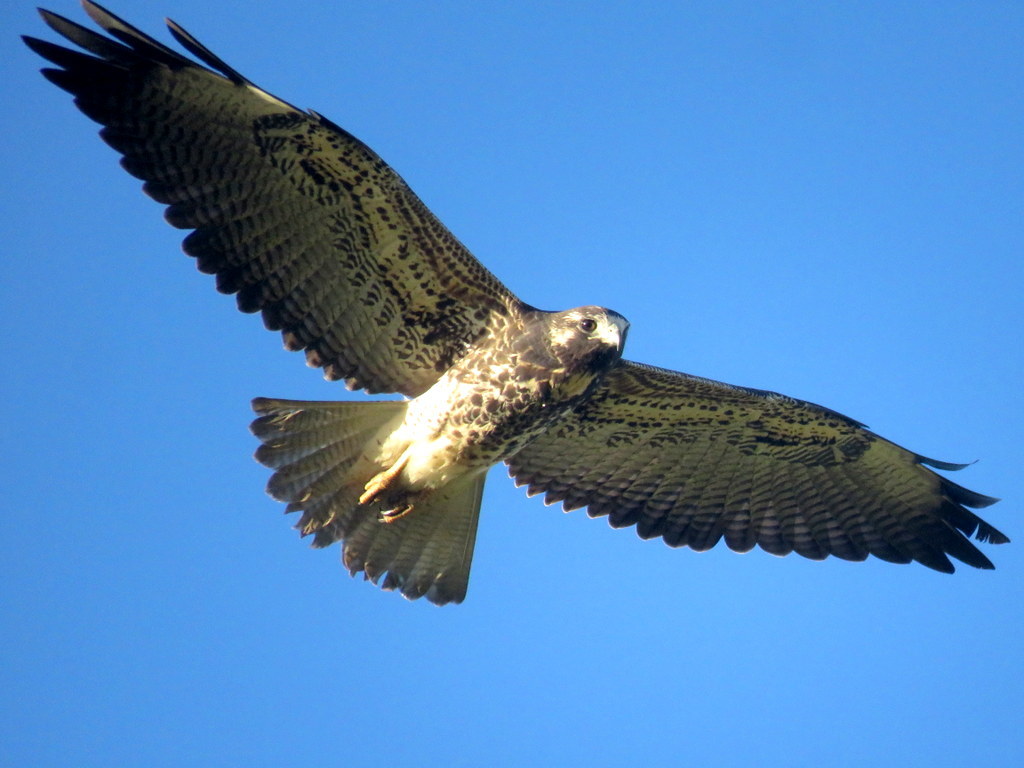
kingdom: Animalia
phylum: Chordata
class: Aves
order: Accipitriformes
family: Accipitridae
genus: Buteo
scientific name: Buteo albicaudatus
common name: White-tailed hawk
